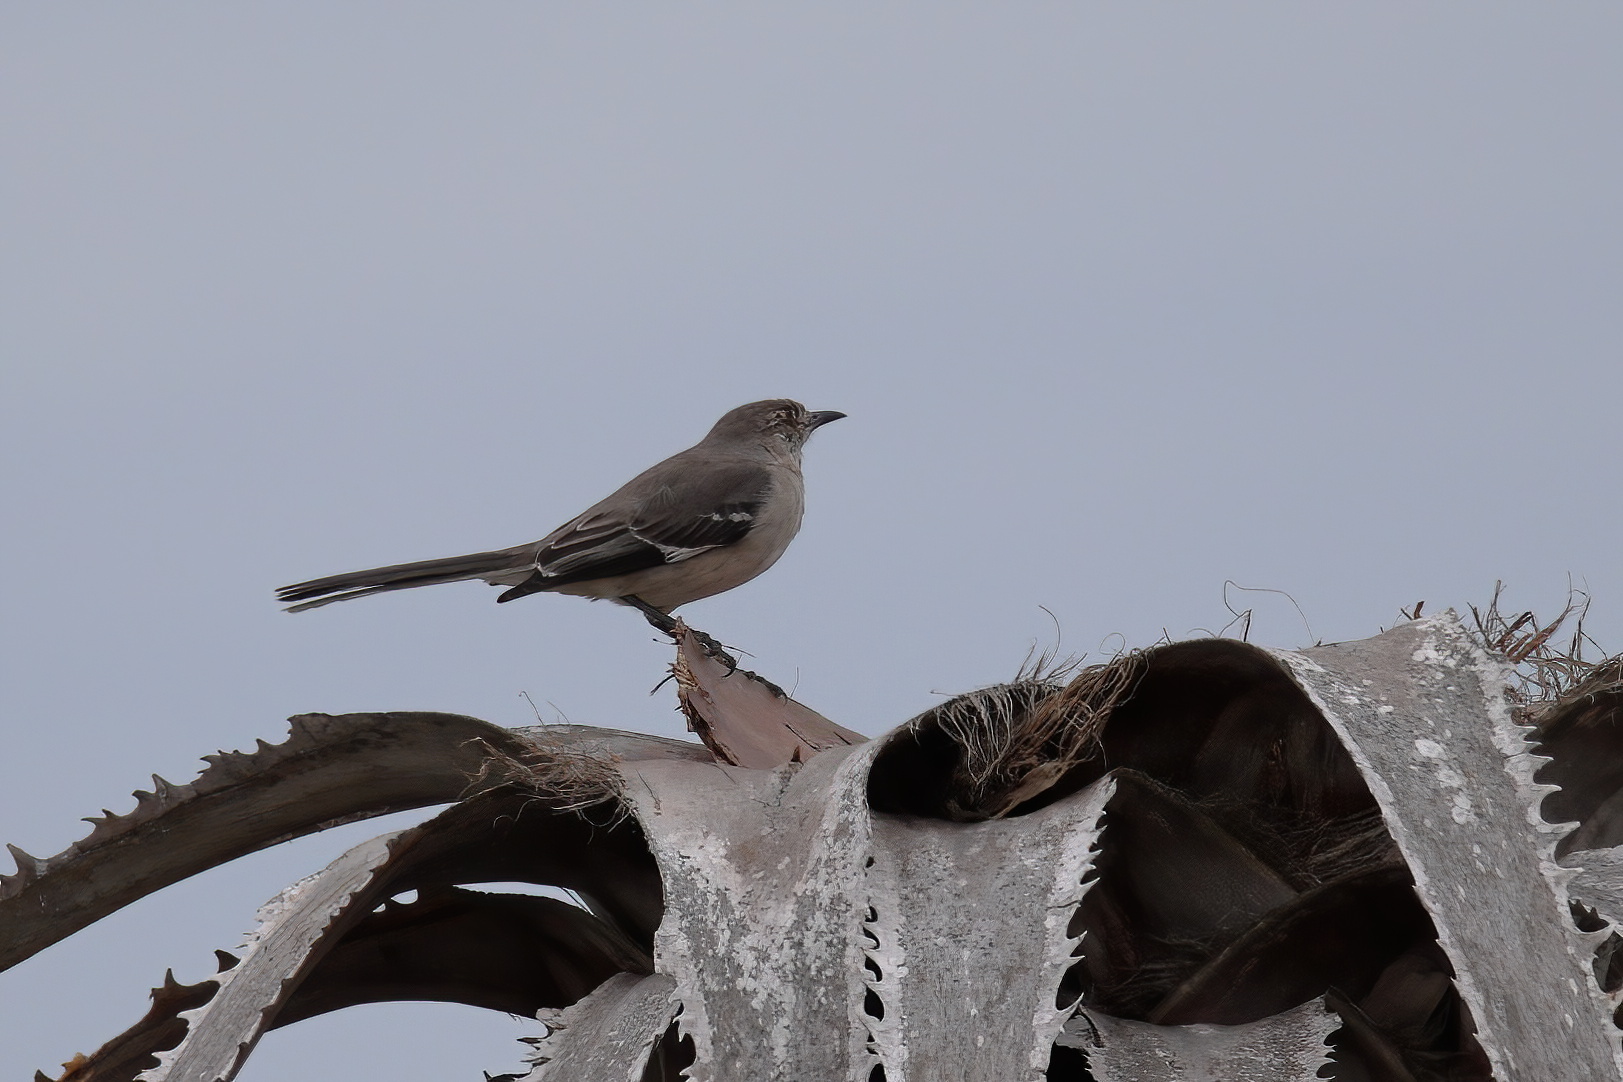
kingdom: Animalia
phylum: Chordata
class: Aves
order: Passeriformes
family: Mimidae
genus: Mimus
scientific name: Mimus polyglottos
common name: Northern mockingbird
